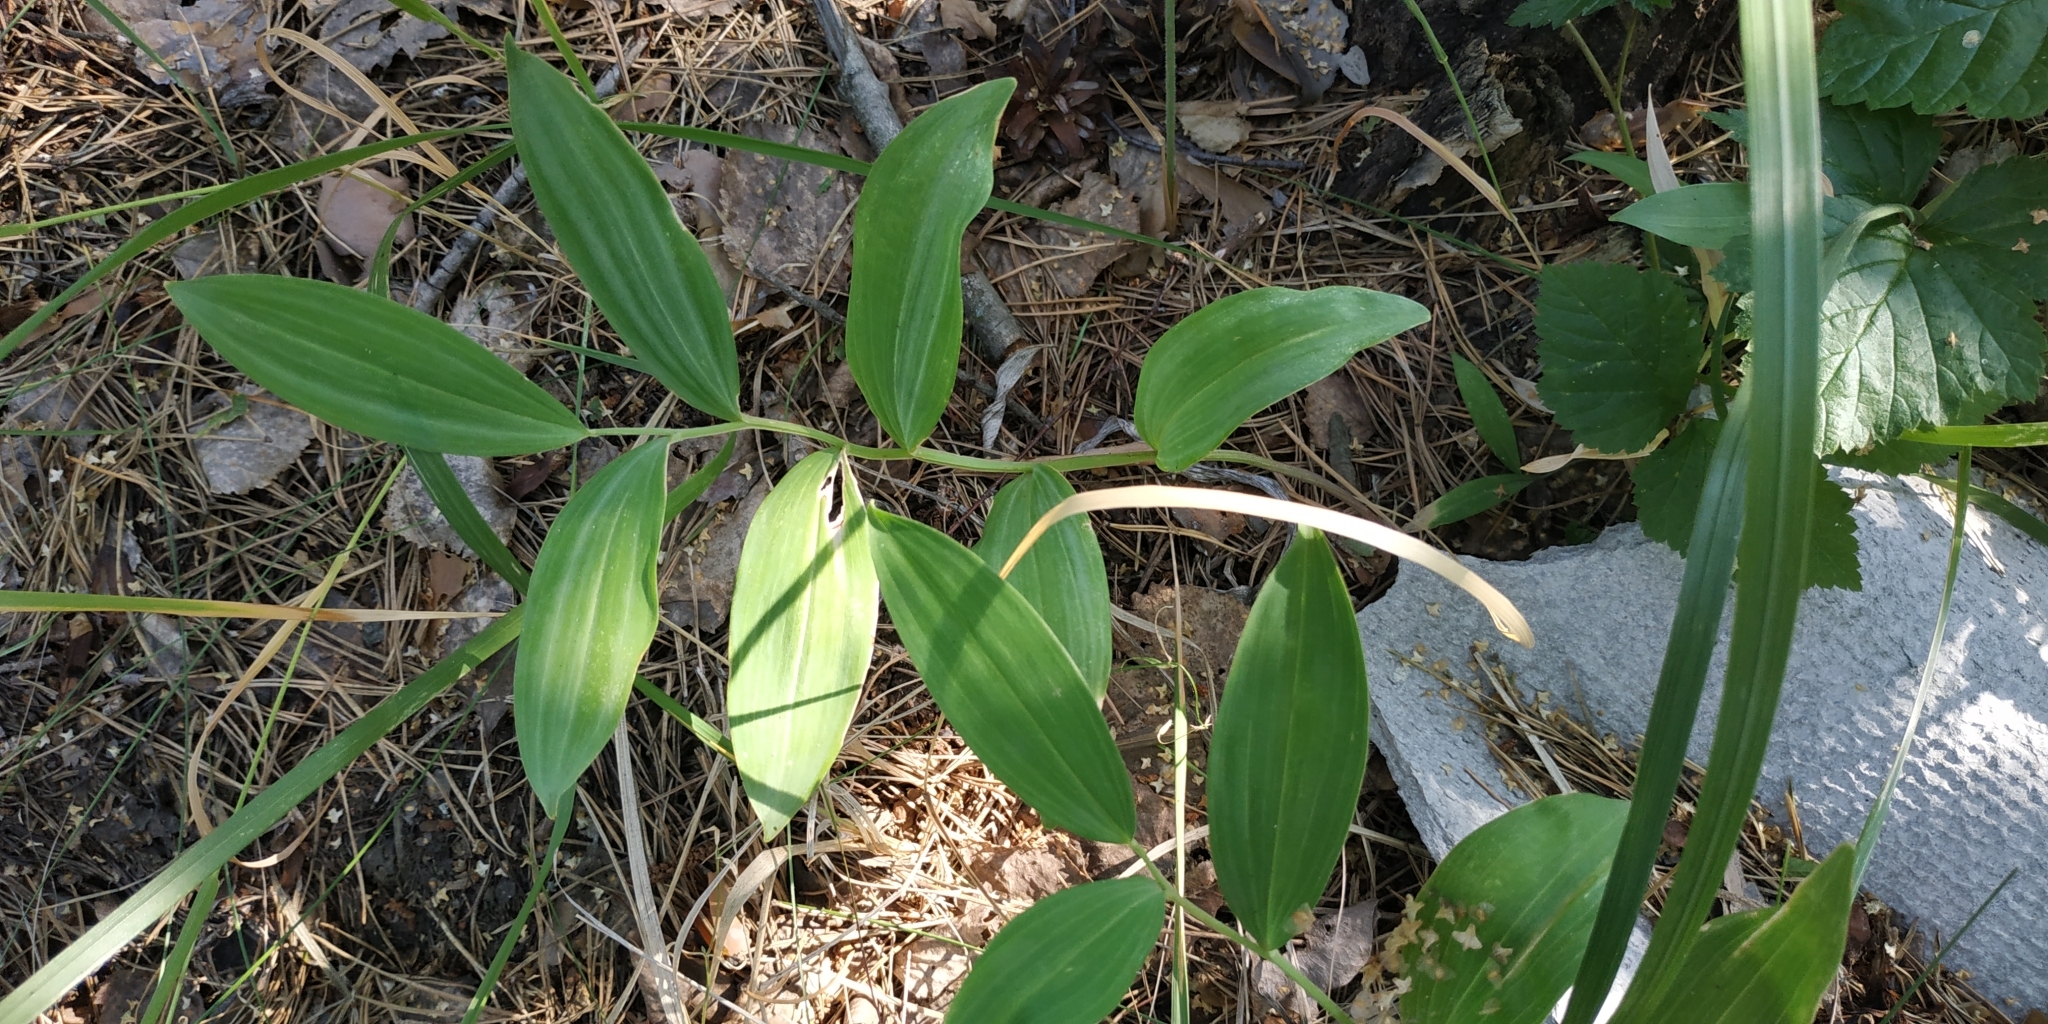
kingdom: Plantae
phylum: Tracheophyta
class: Liliopsida
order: Asparagales
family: Asparagaceae
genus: Polygonatum
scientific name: Polygonatum odoratum
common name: Angular solomon's-seal
